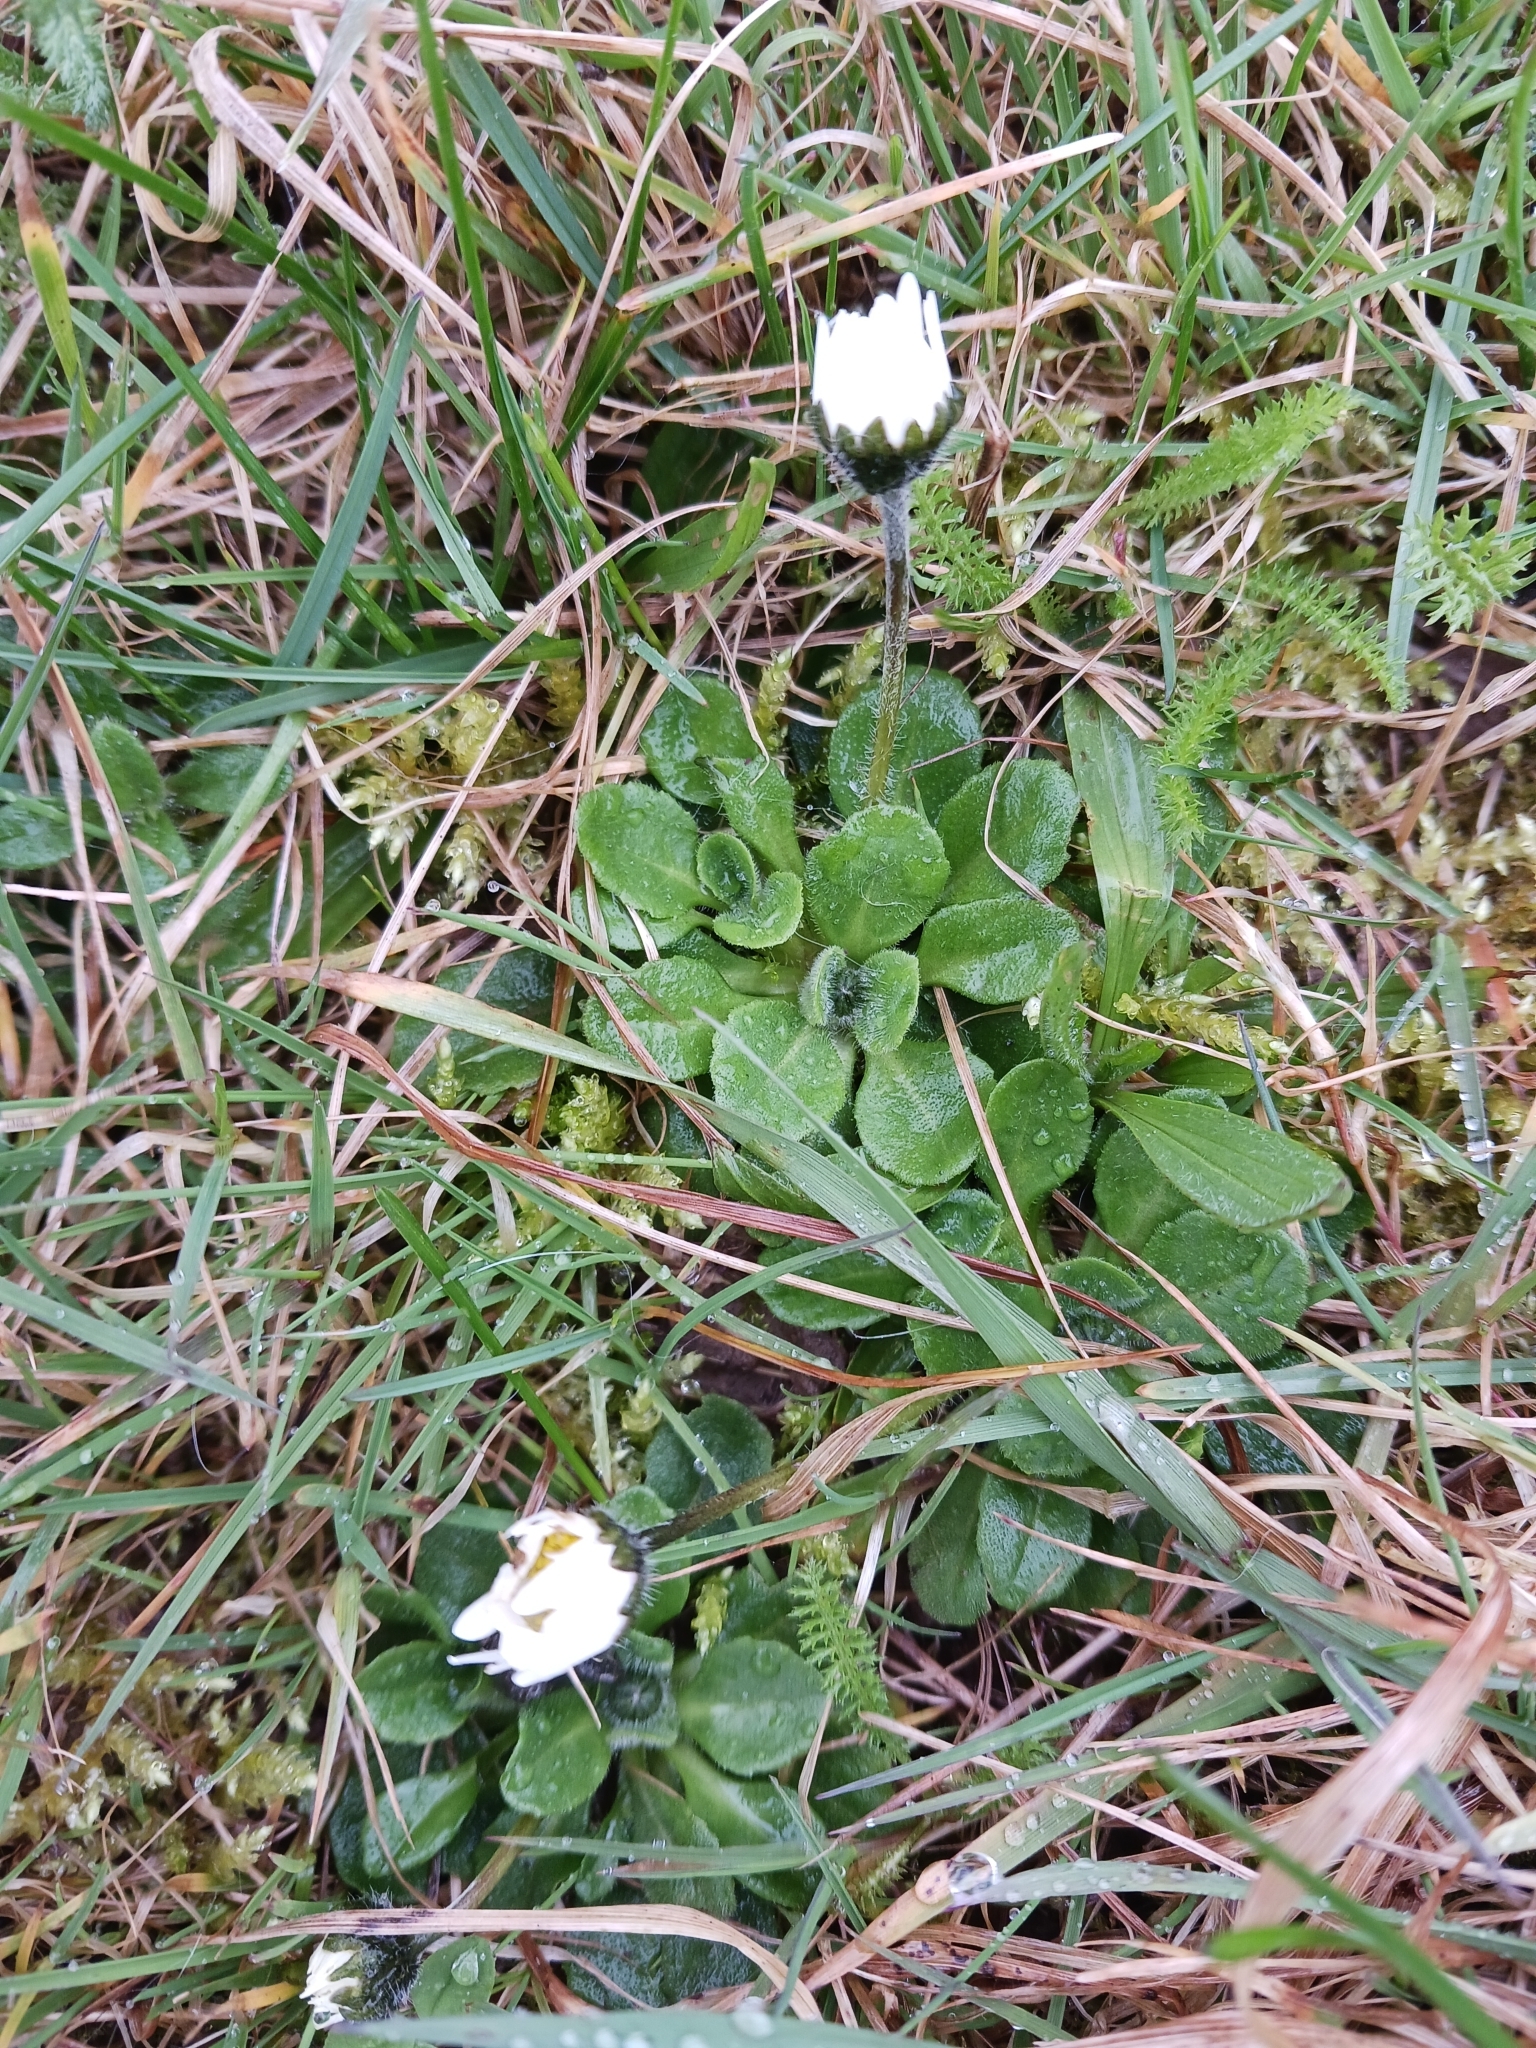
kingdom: Plantae
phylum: Tracheophyta
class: Magnoliopsida
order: Asterales
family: Asteraceae
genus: Bellis
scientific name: Bellis perennis
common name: Lawndaisy
